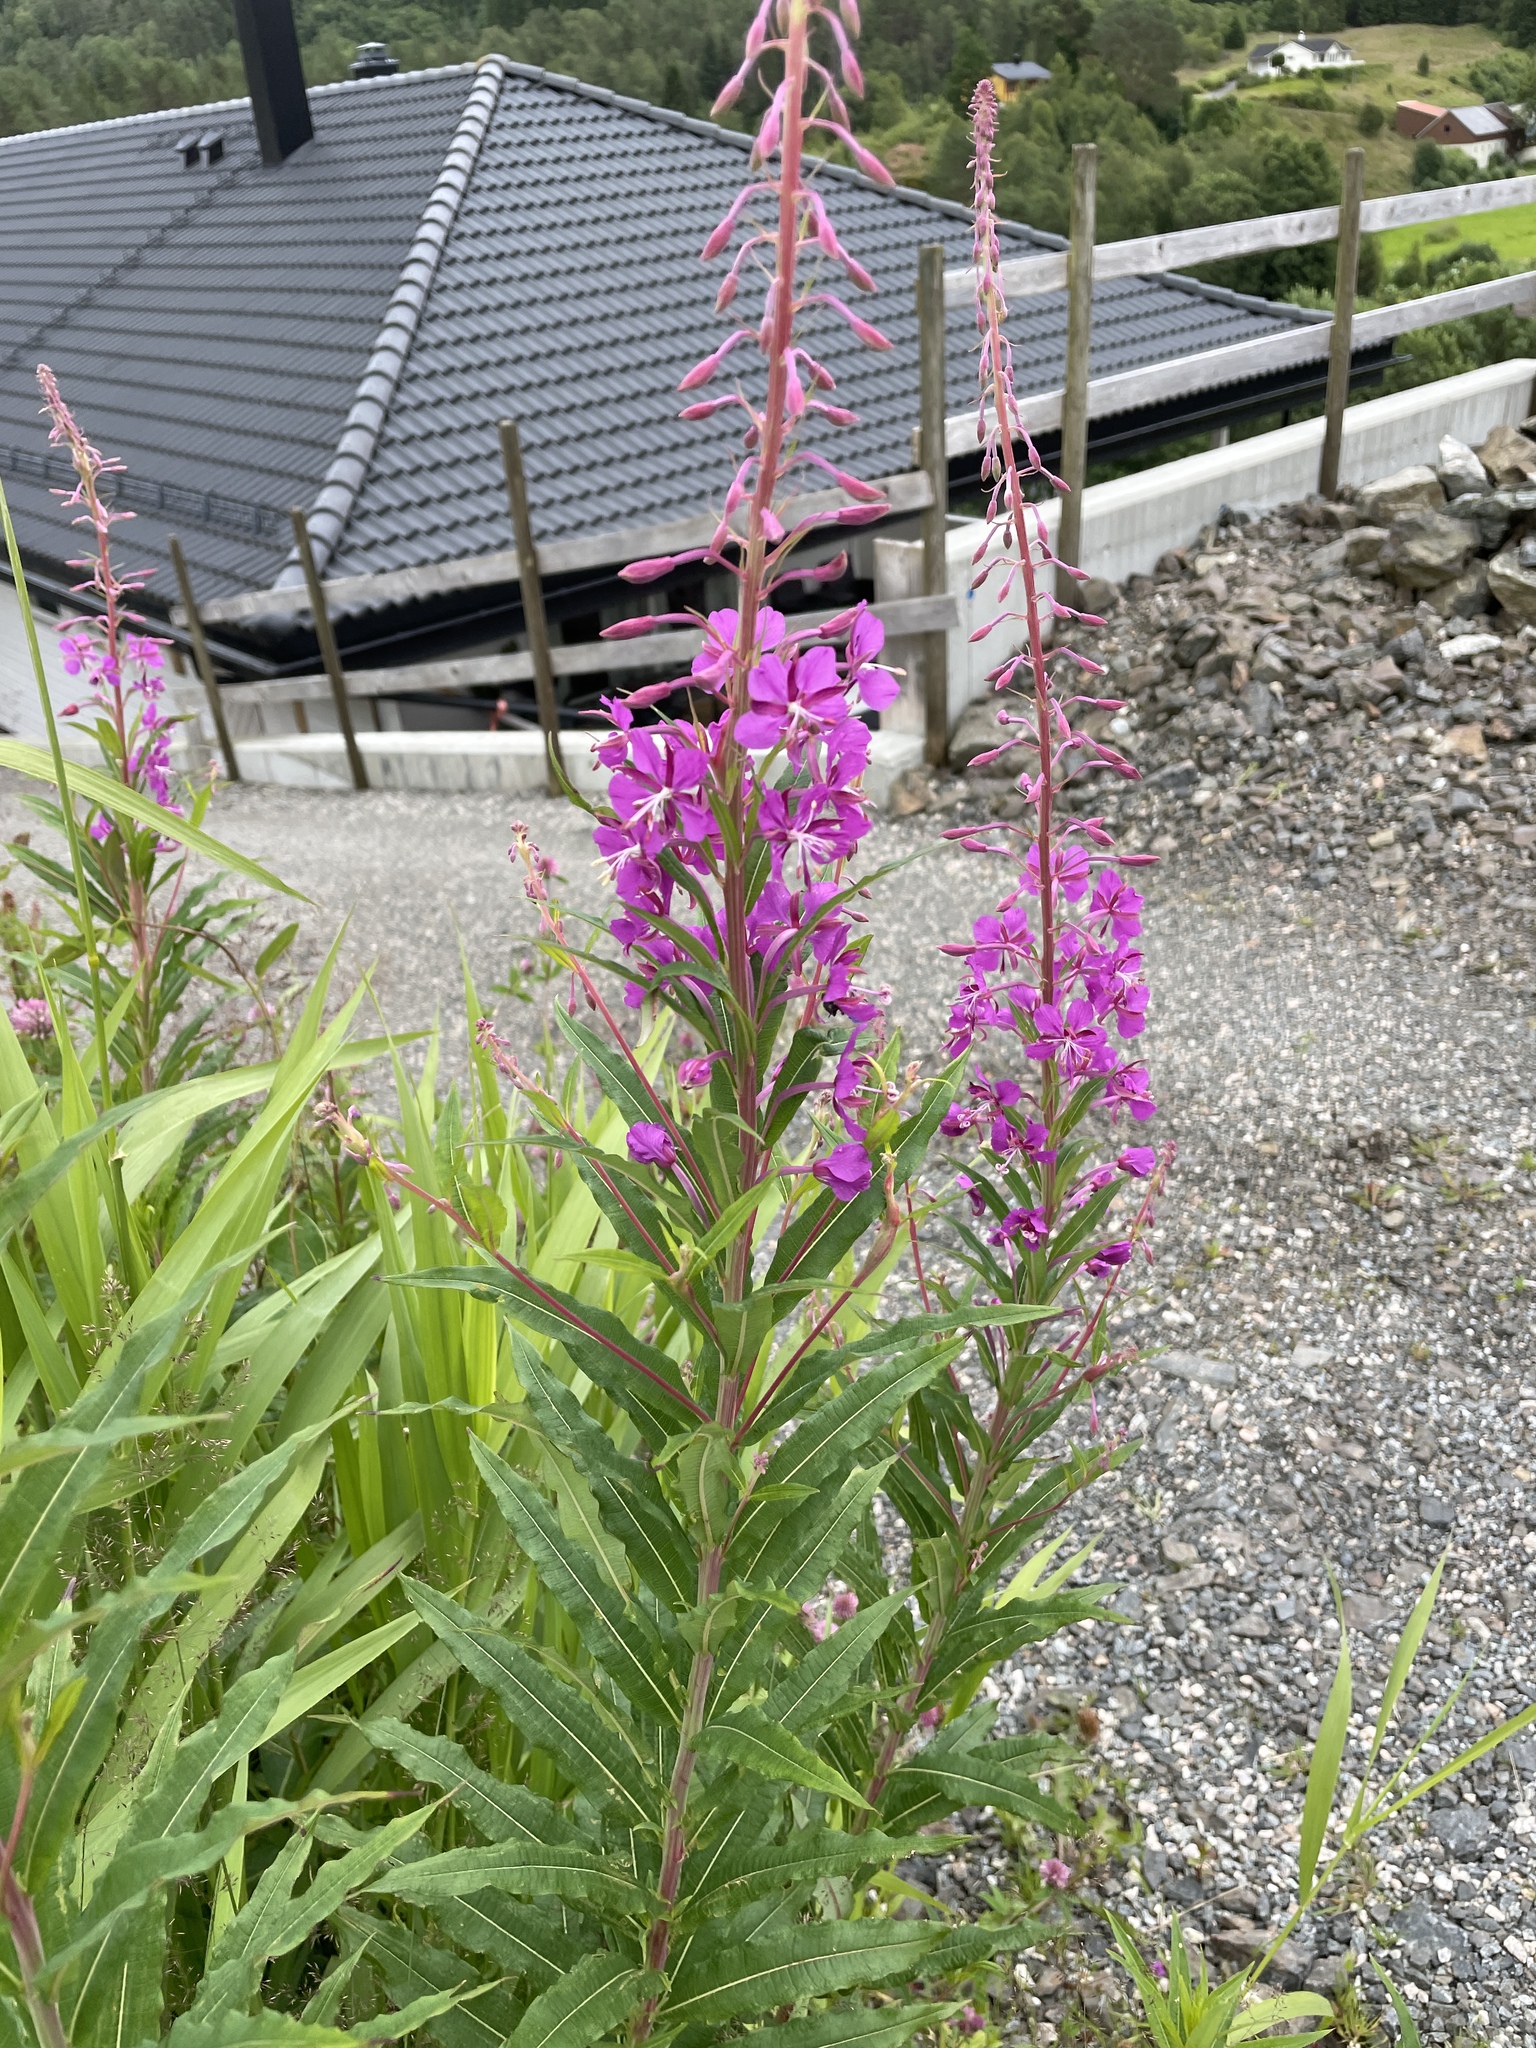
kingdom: Plantae
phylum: Tracheophyta
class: Magnoliopsida
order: Myrtales
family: Onagraceae
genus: Chamaenerion
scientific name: Chamaenerion angustifolium
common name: Fireweed
